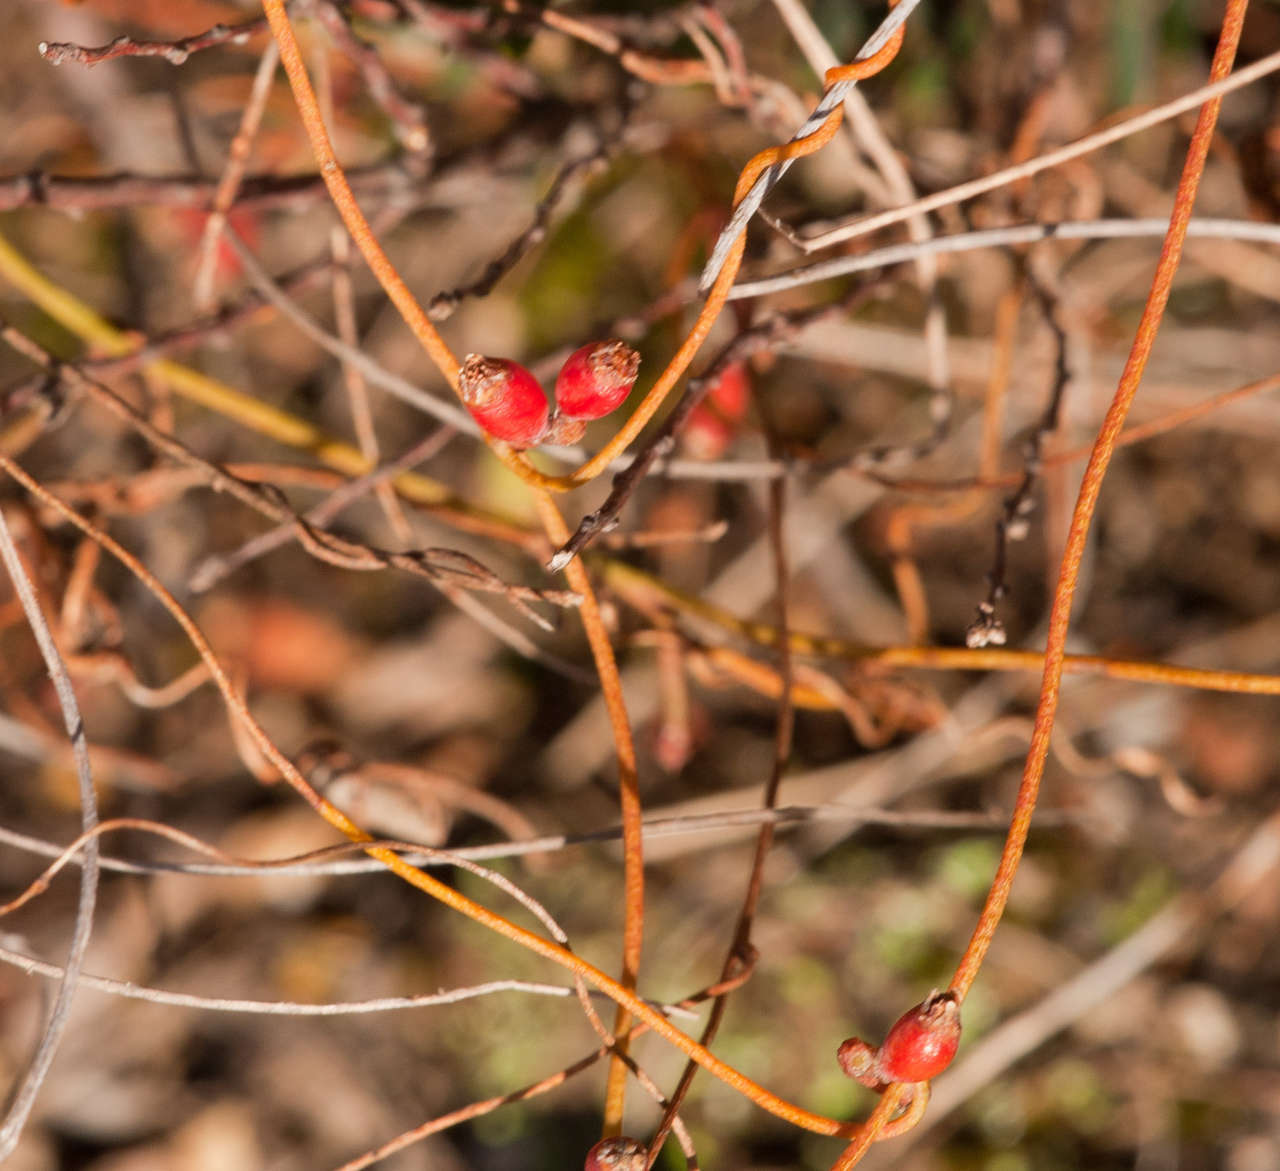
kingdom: Plantae
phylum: Tracheophyta
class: Magnoliopsida
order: Laurales
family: Lauraceae
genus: Cassytha
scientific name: Cassytha glabella
